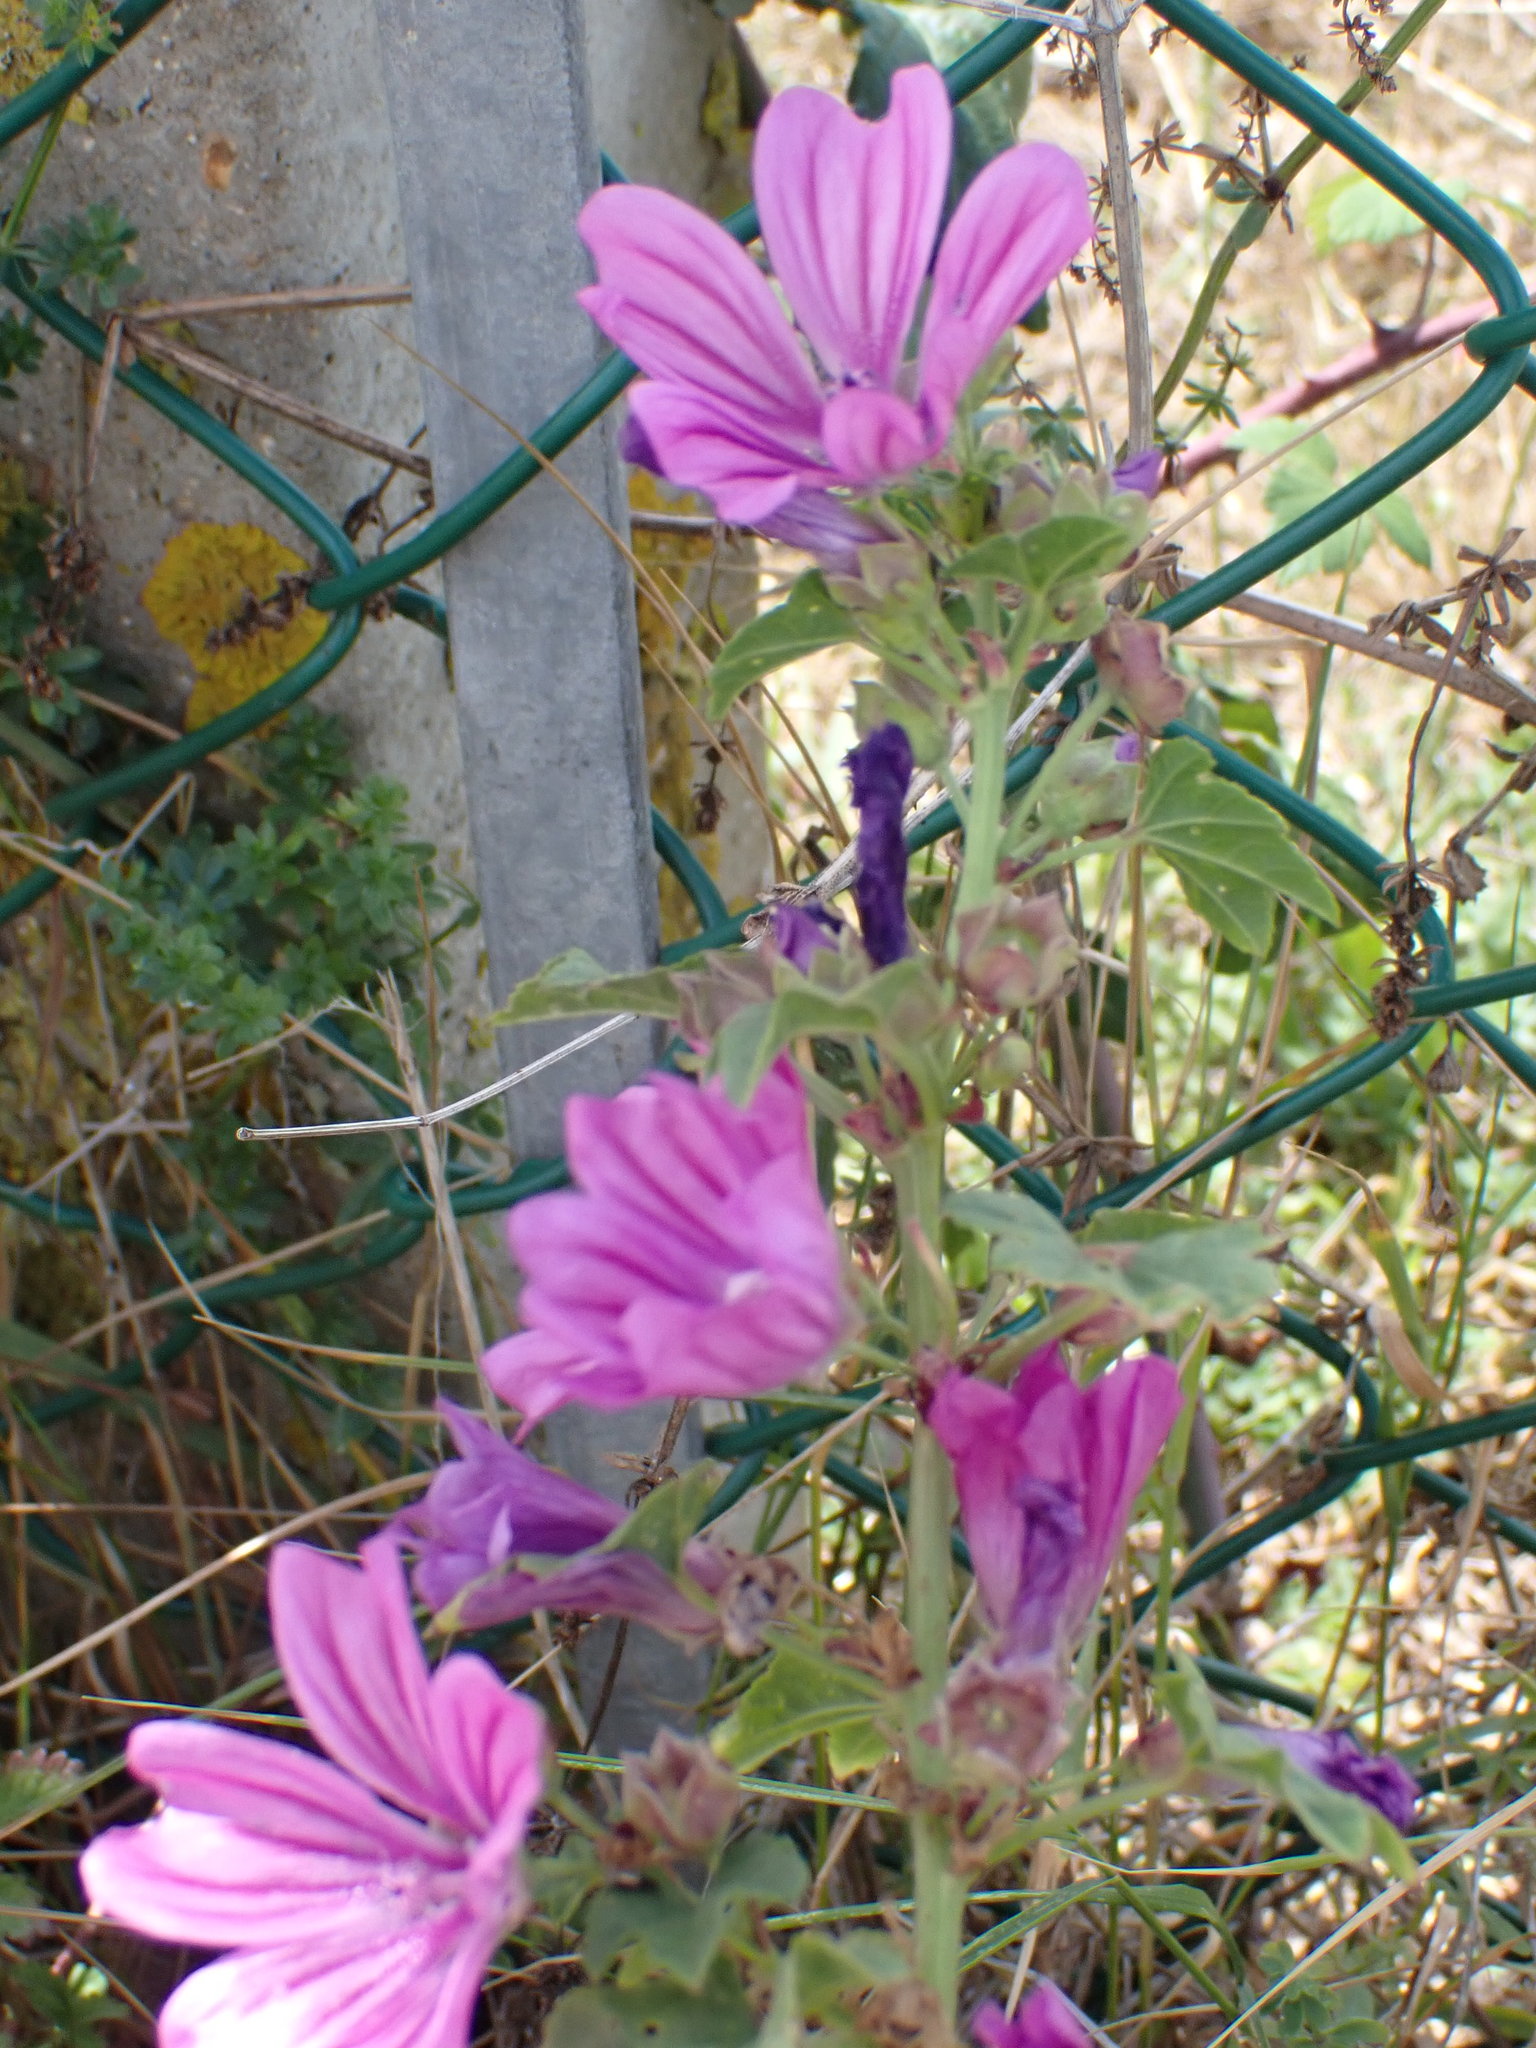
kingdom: Plantae
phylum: Tracheophyta
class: Magnoliopsida
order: Malvales
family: Malvaceae
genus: Malva
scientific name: Malva sylvestris
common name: Common mallow
